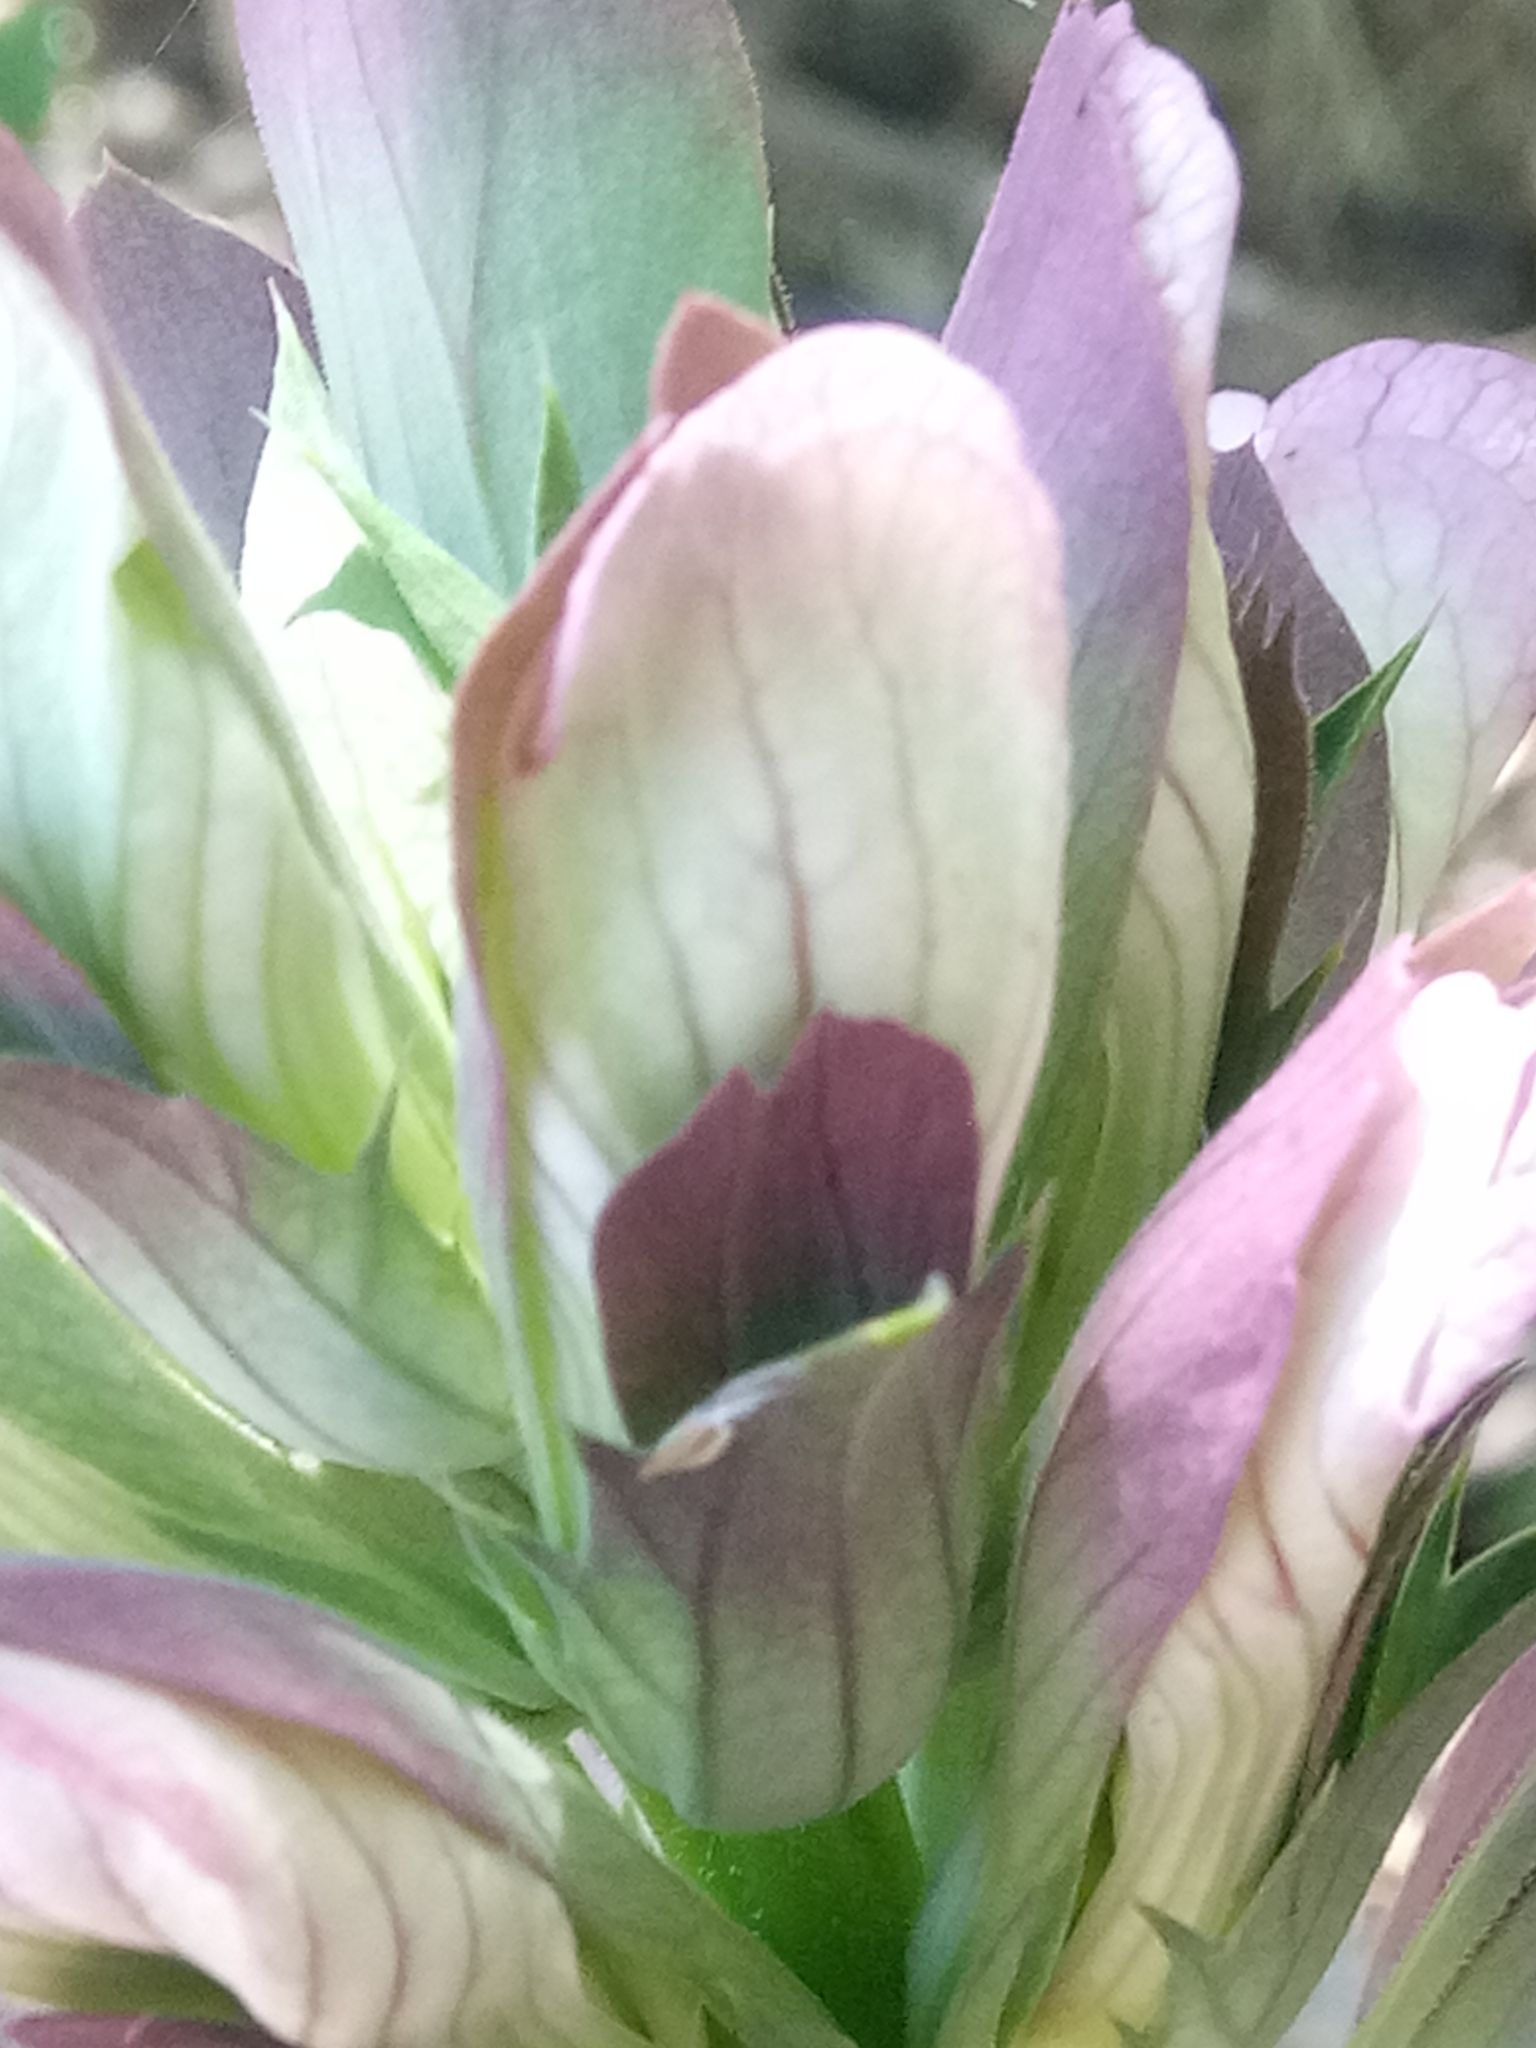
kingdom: Plantae
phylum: Tracheophyta
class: Magnoliopsida
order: Lamiales
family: Acanthaceae
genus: Acanthus
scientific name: Acanthus mollis
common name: Bear's-breech
